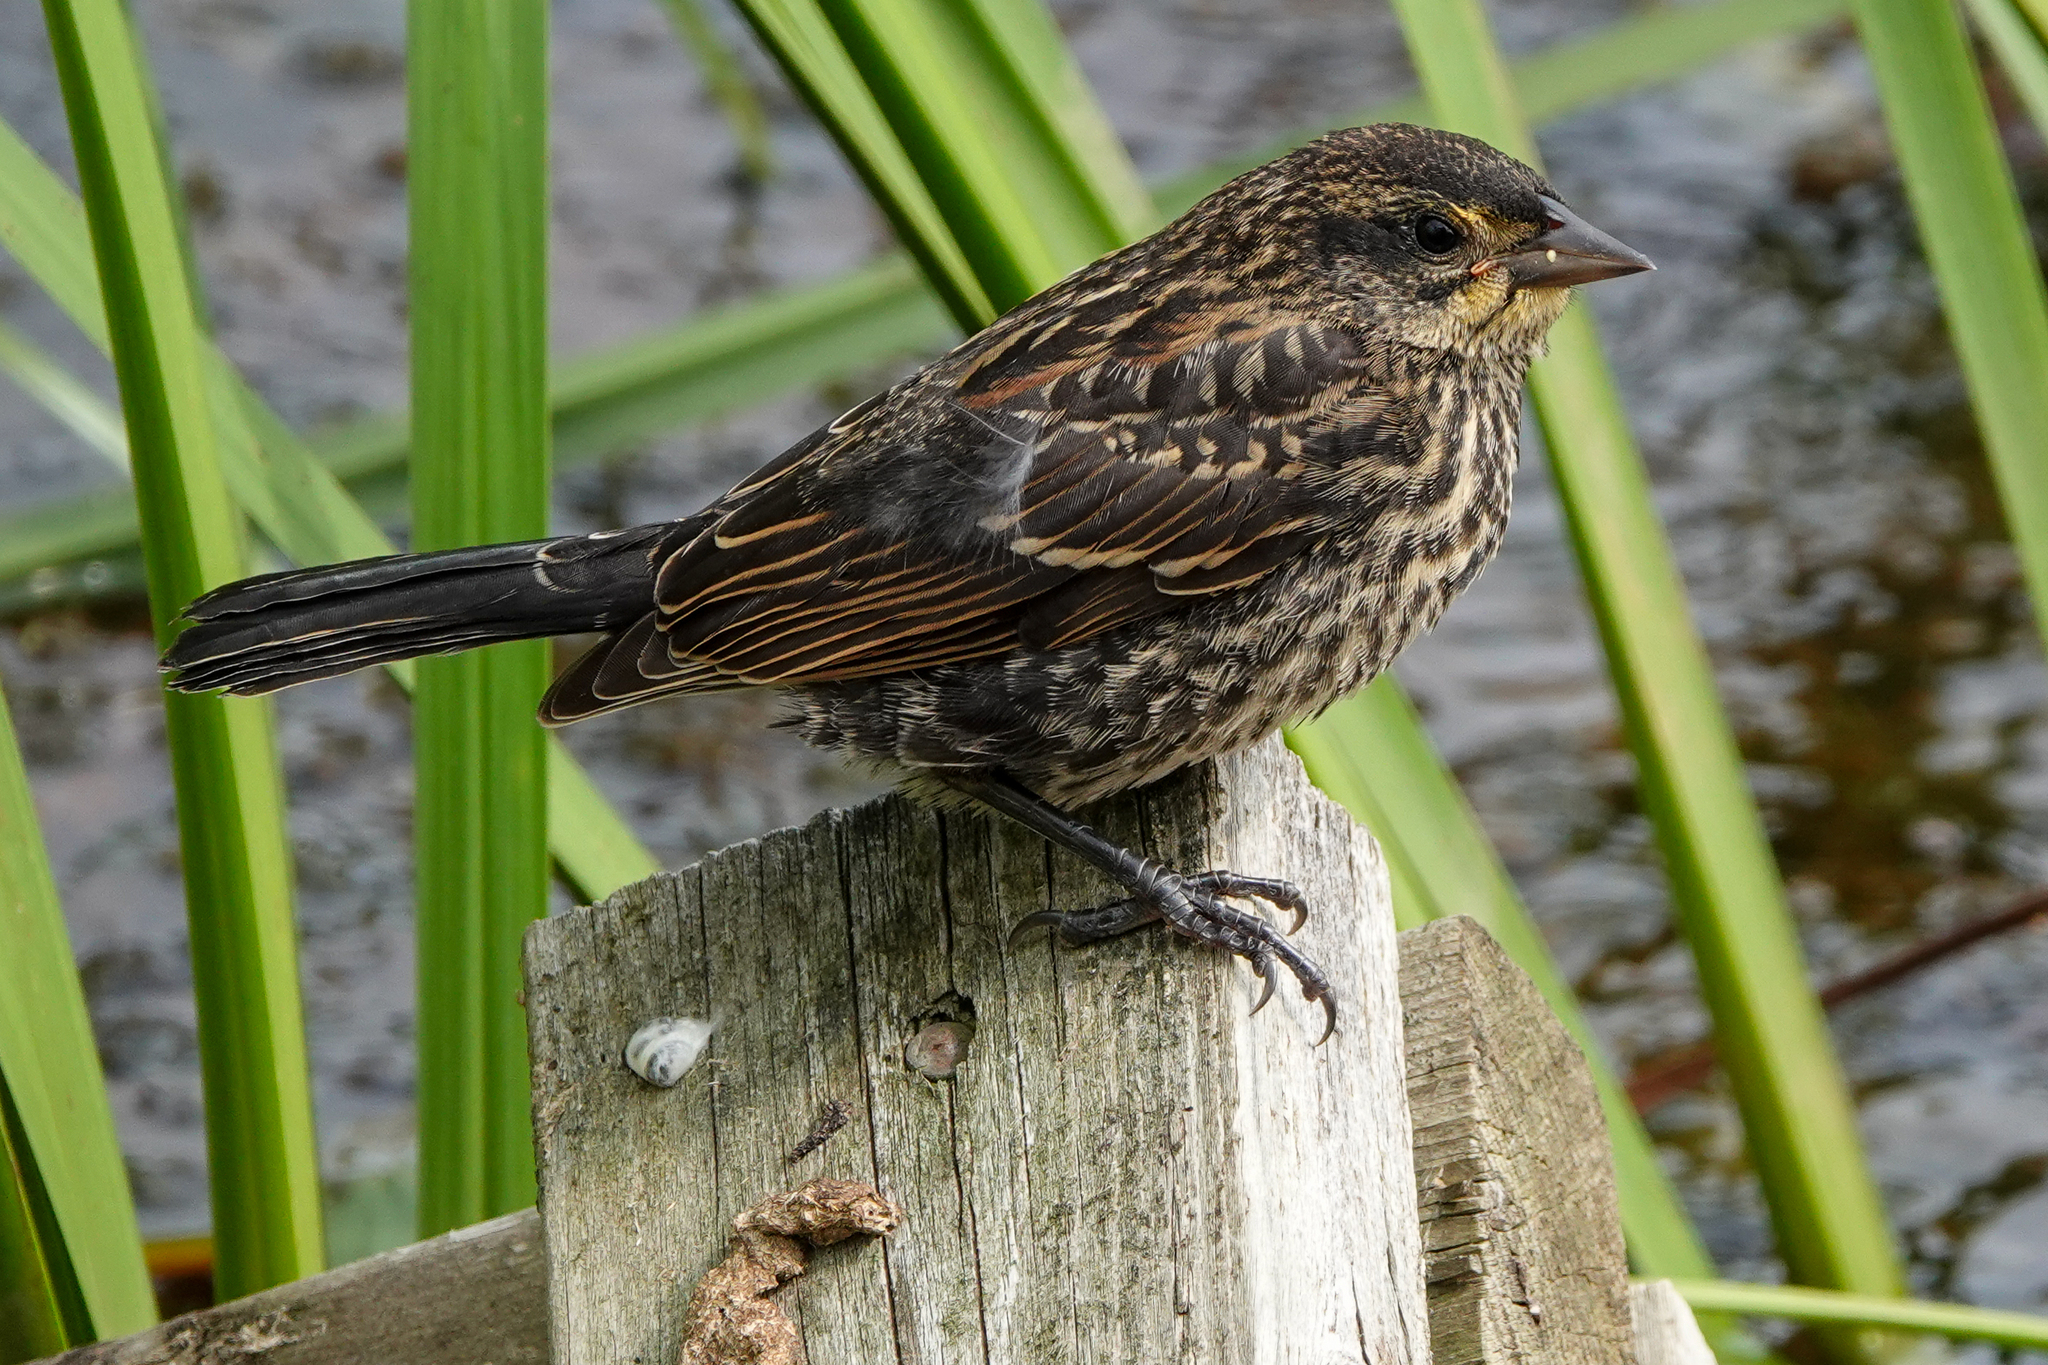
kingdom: Animalia
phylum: Chordata
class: Aves
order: Passeriformes
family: Icteridae
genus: Agelaius
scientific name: Agelaius phoeniceus
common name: Red-winged blackbird
